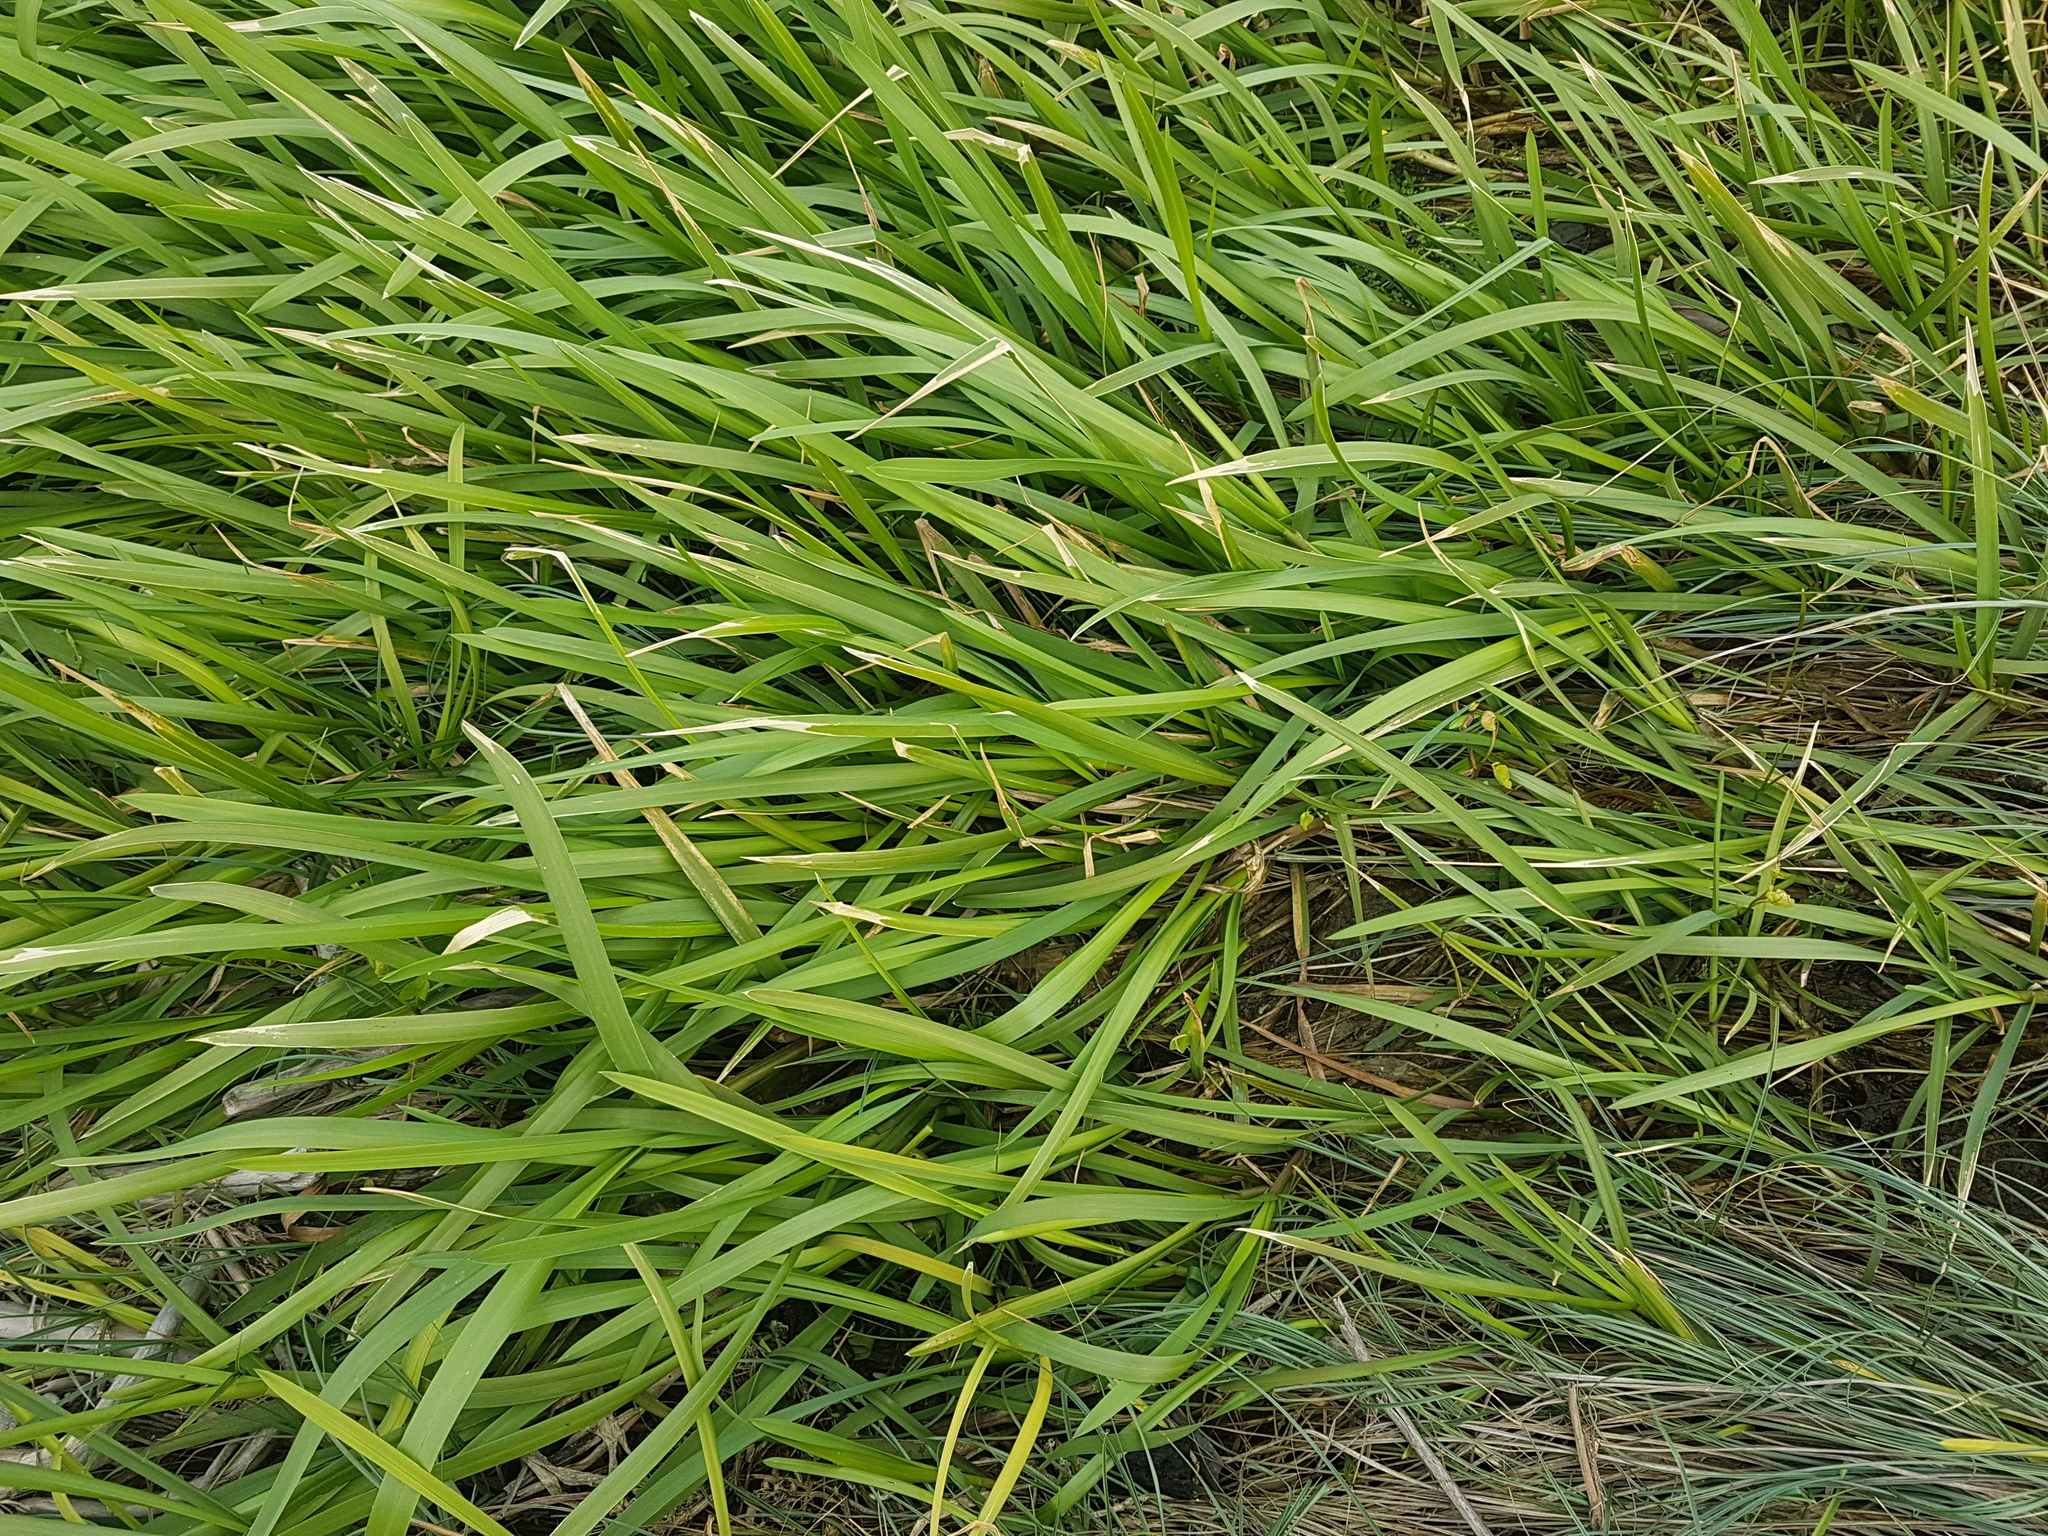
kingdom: Plantae
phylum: Tracheophyta
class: Liliopsida
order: Poales
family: Poaceae
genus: Glyceria
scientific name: Glyceria fluitans
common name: Floating sweet-grass
